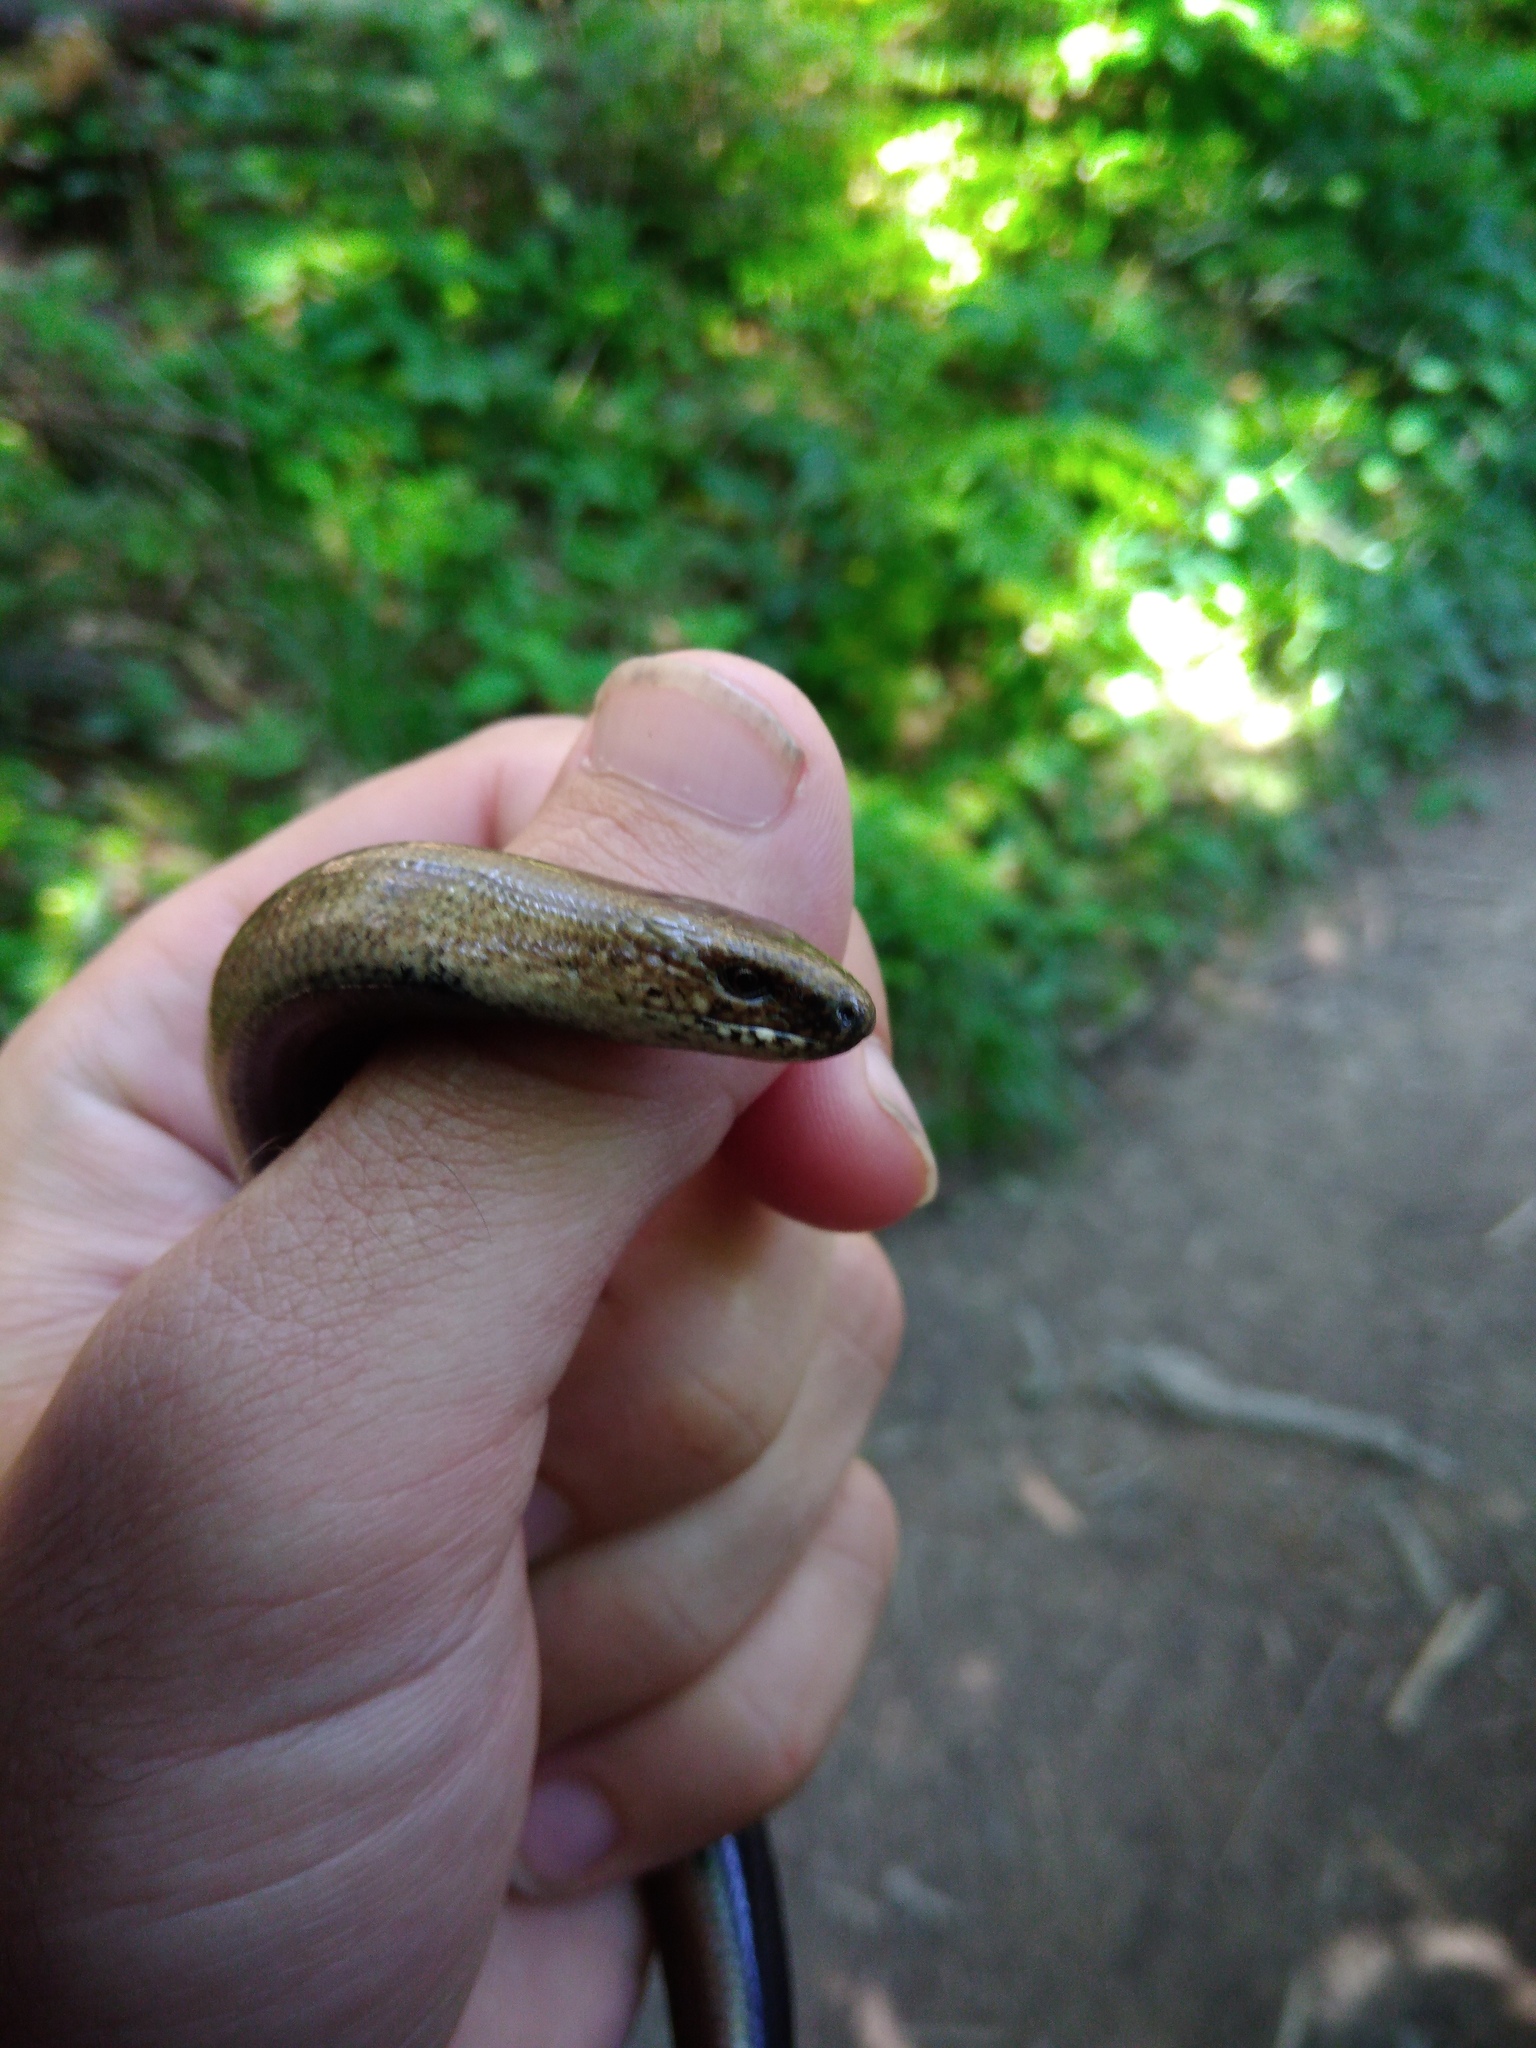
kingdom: Animalia
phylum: Chordata
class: Squamata
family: Anguidae
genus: Anguis
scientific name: Anguis colchica
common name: Slow worm
